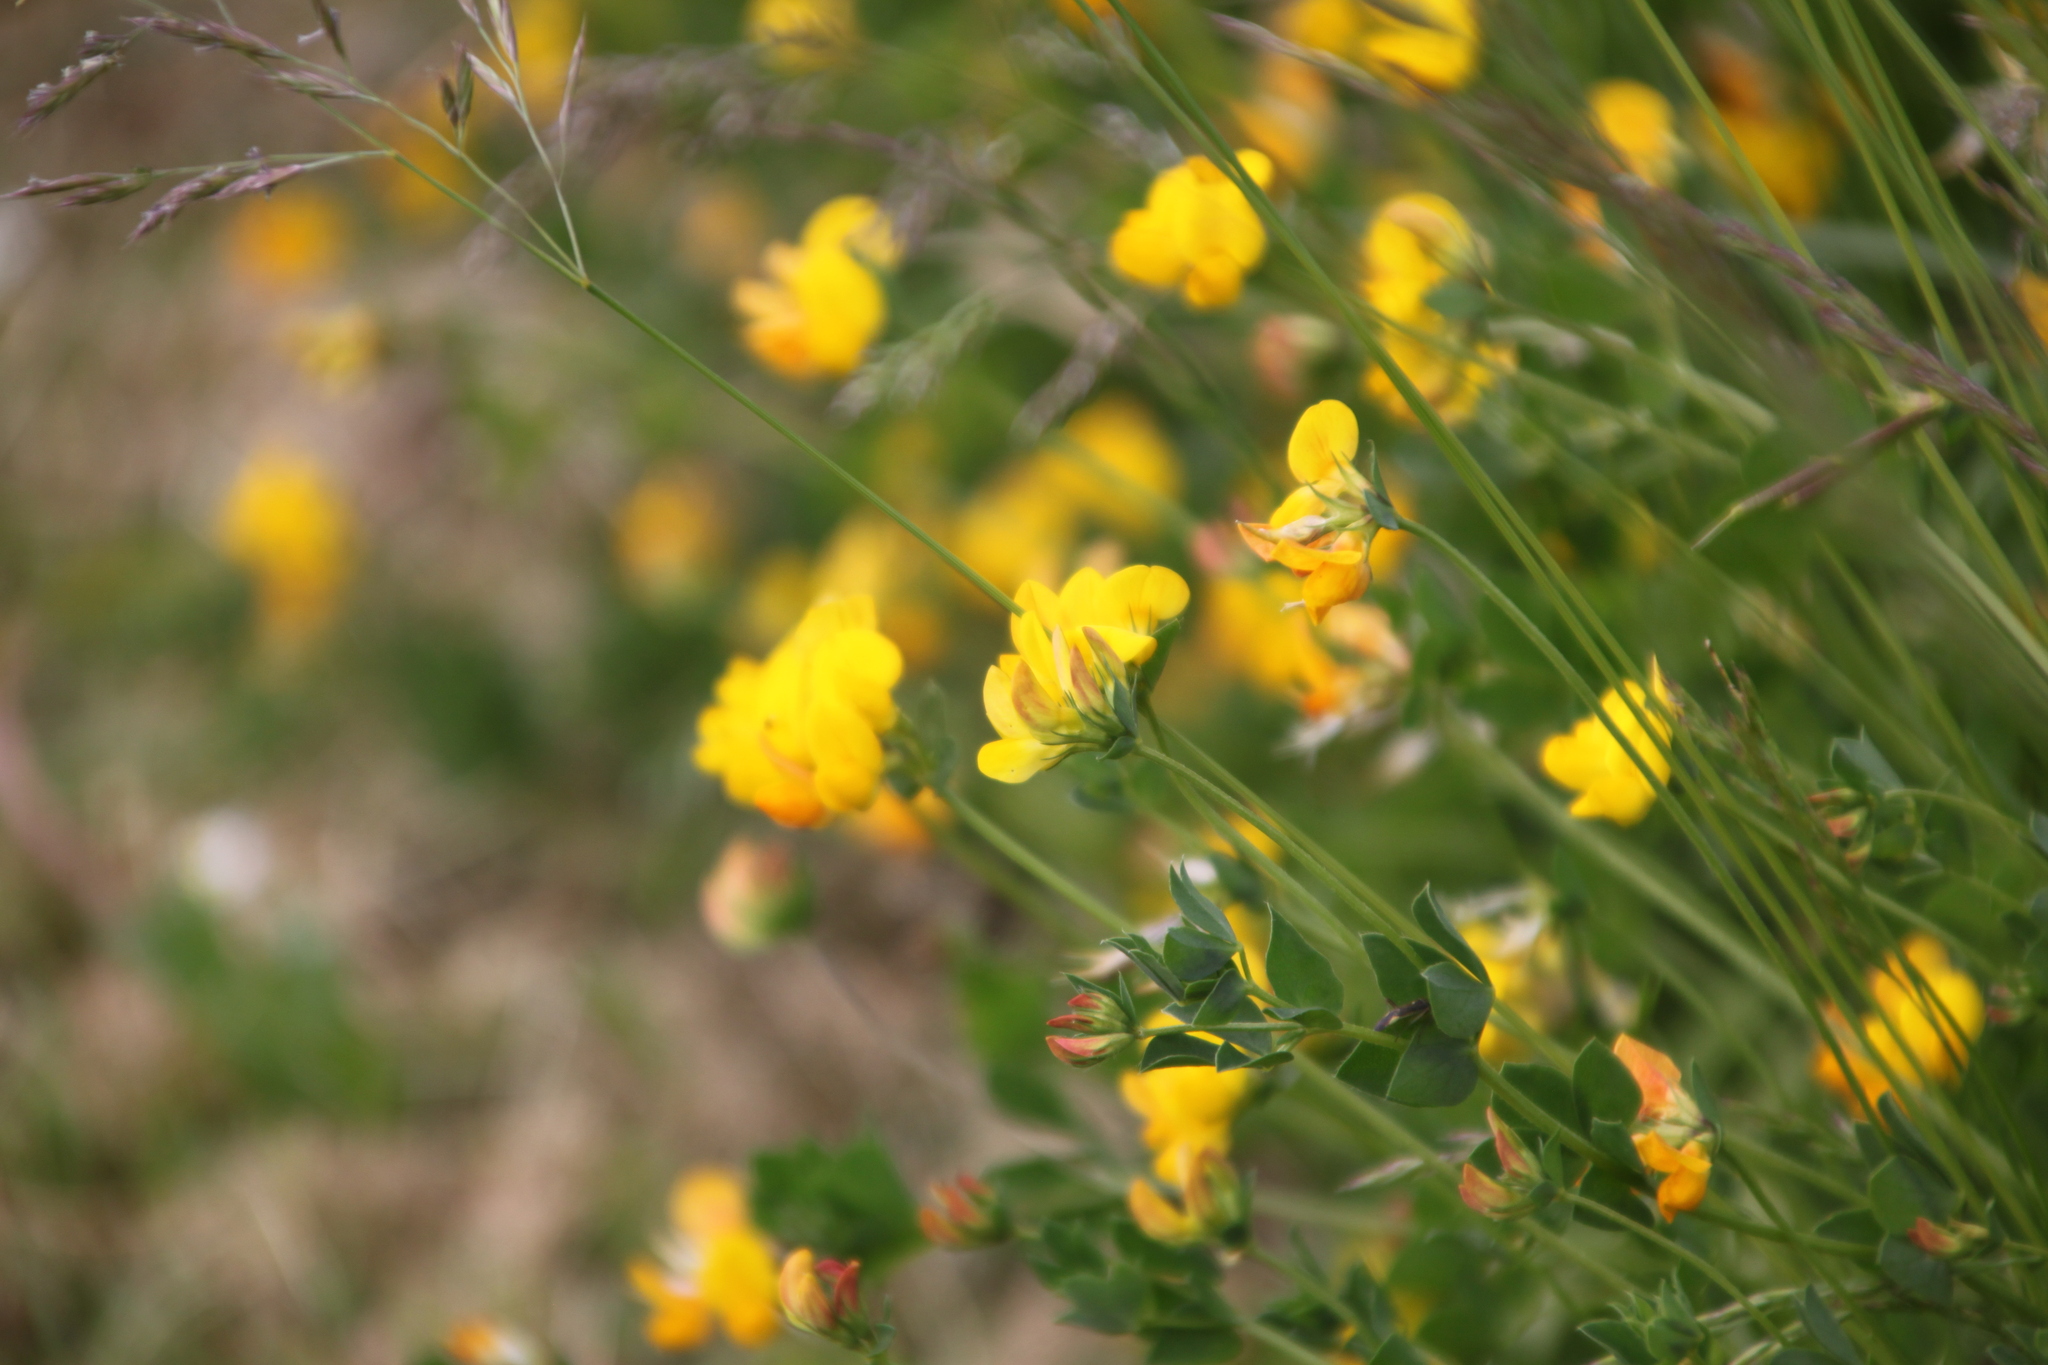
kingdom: Plantae
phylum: Tracheophyta
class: Magnoliopsida
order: Fabales
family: Fabaceae
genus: Lotus
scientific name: Lotus corniculatus
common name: Common bird's-foot-trefoil
